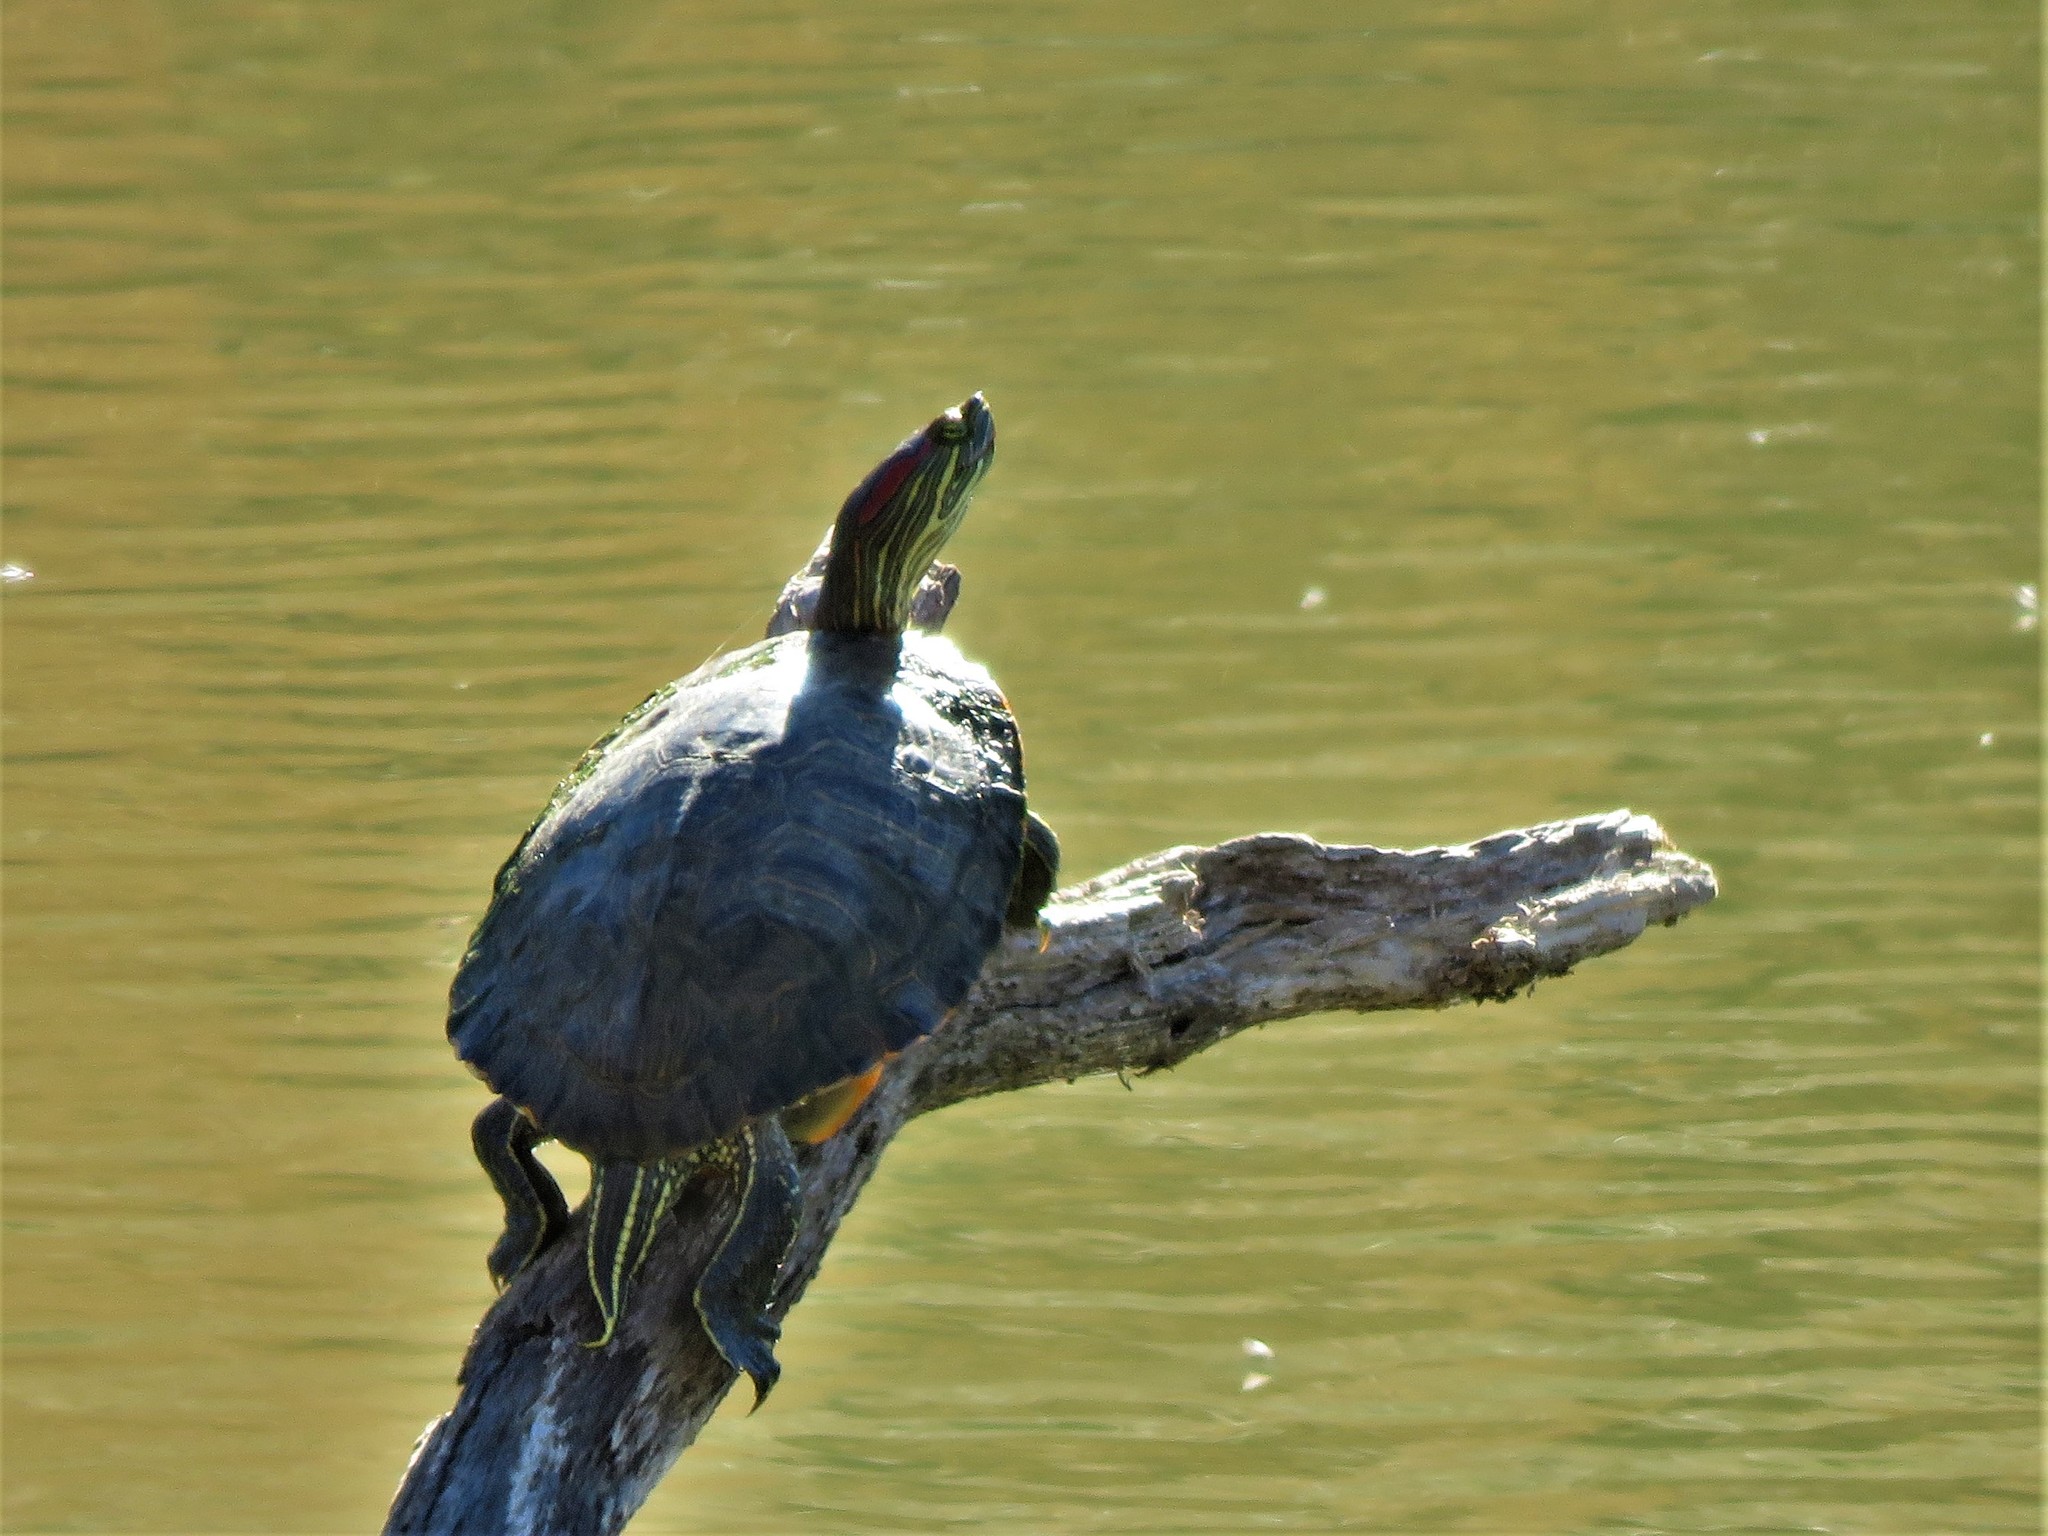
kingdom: Animalia
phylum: Chordata
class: Testudines
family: Emydidae
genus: Trachemys
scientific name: Trachemys scripta
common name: Slider
